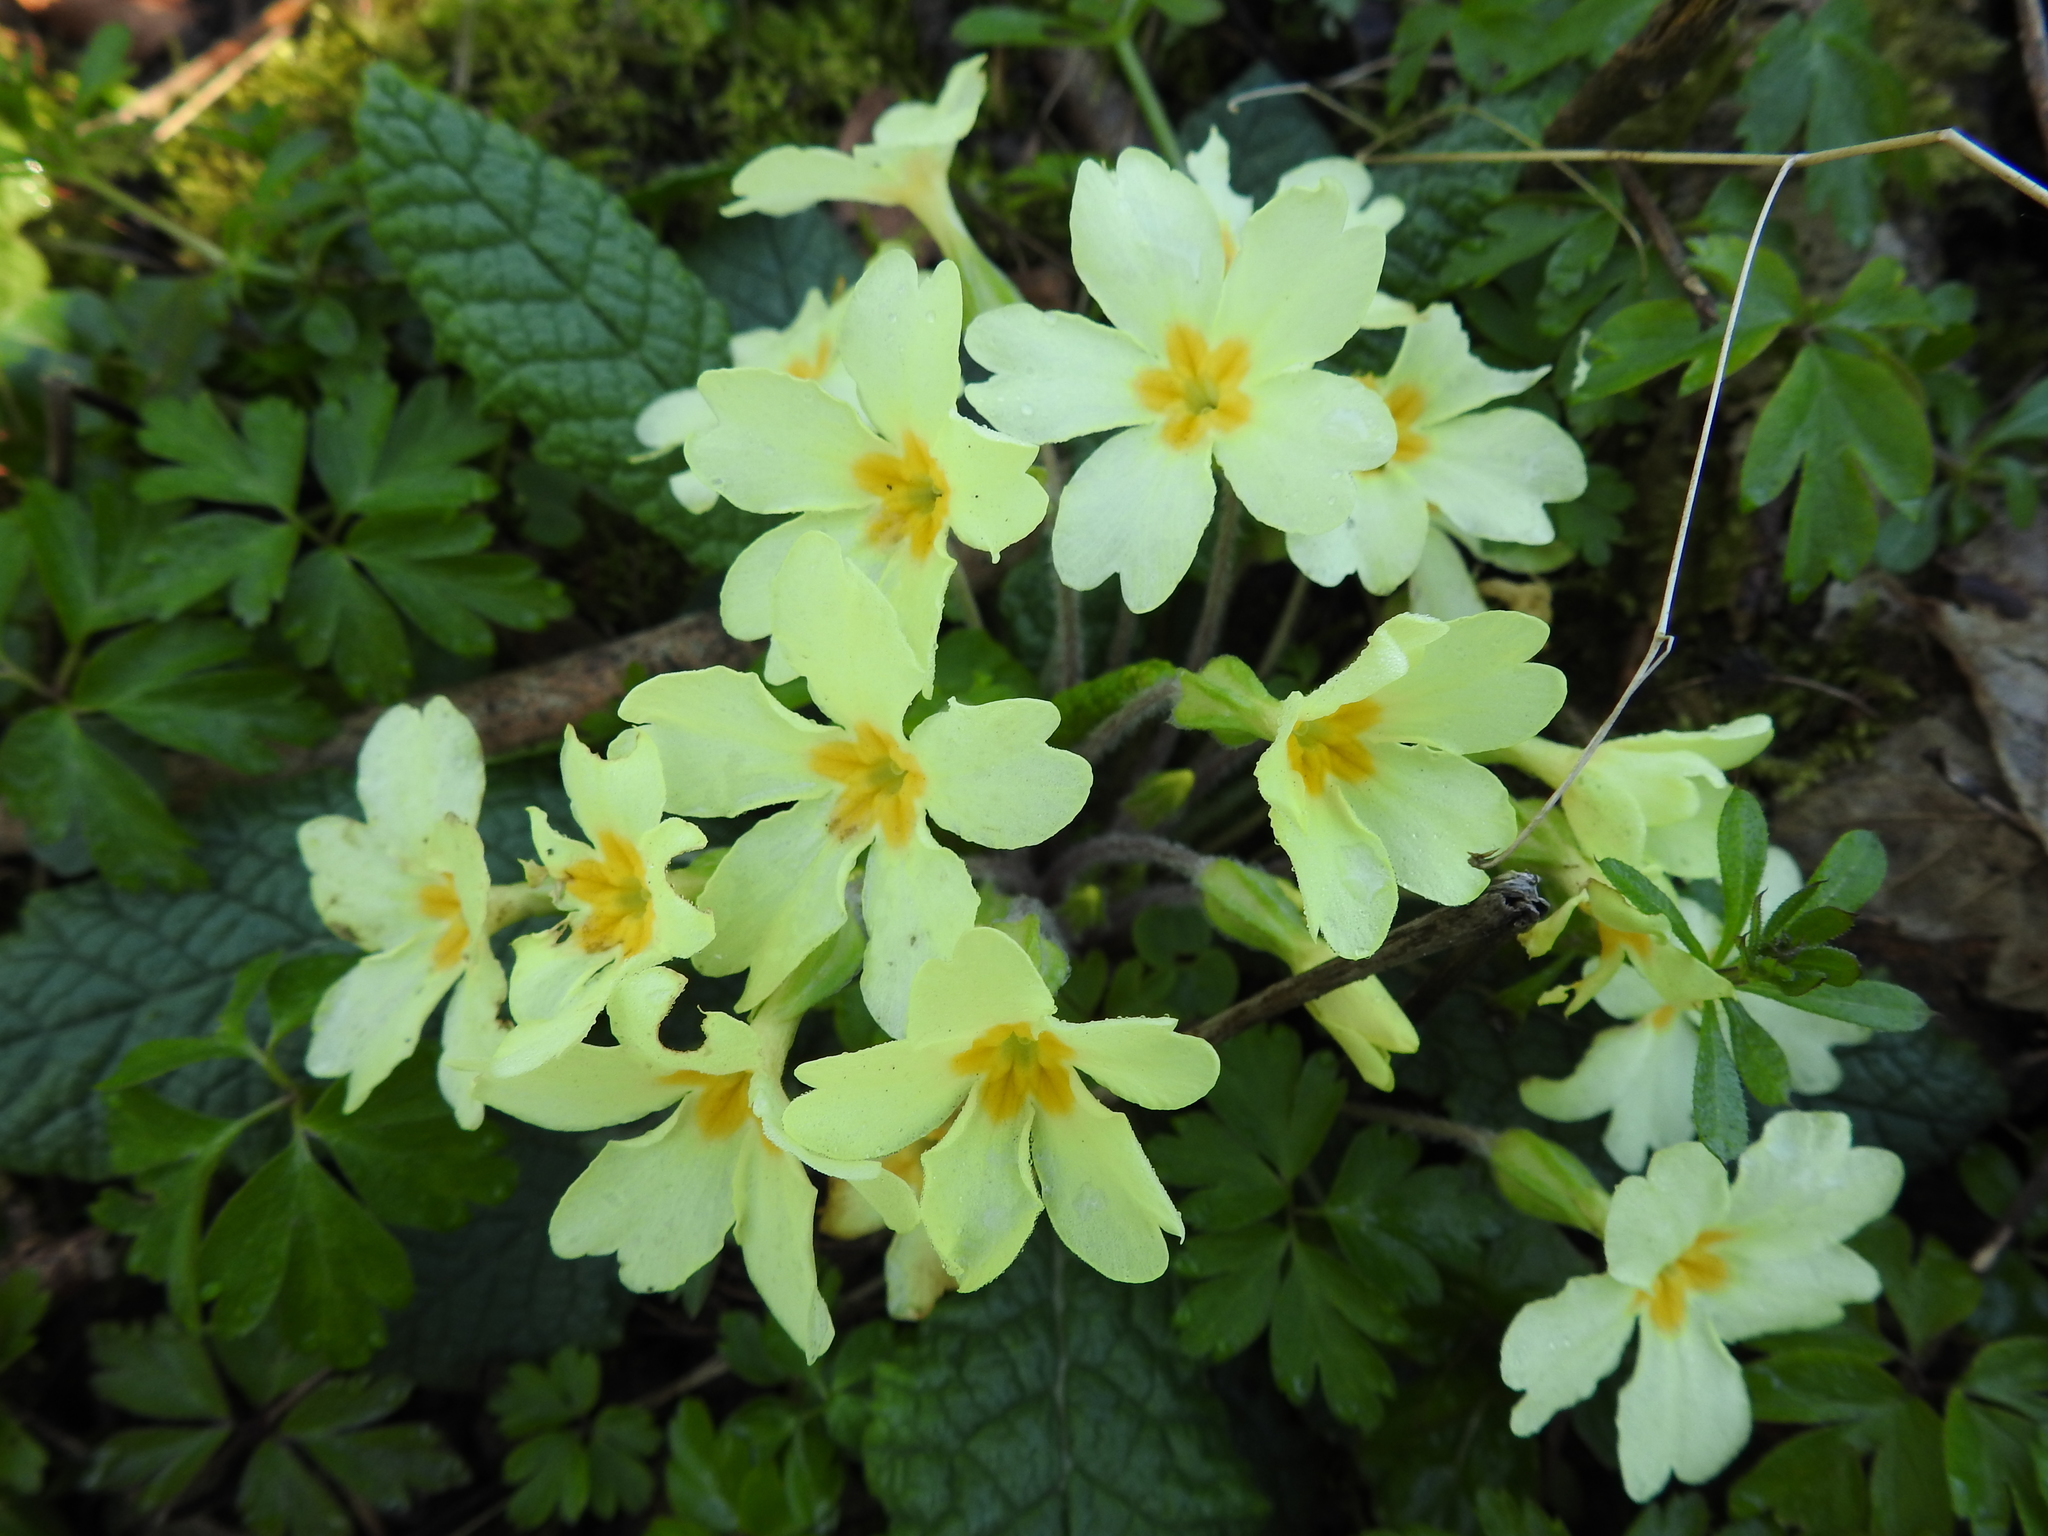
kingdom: Plantae
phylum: Tracheophyta
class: Magnoliopsida
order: Ericales
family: Primulaceae
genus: Primula
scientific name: Primula vulgaris
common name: Primrose
